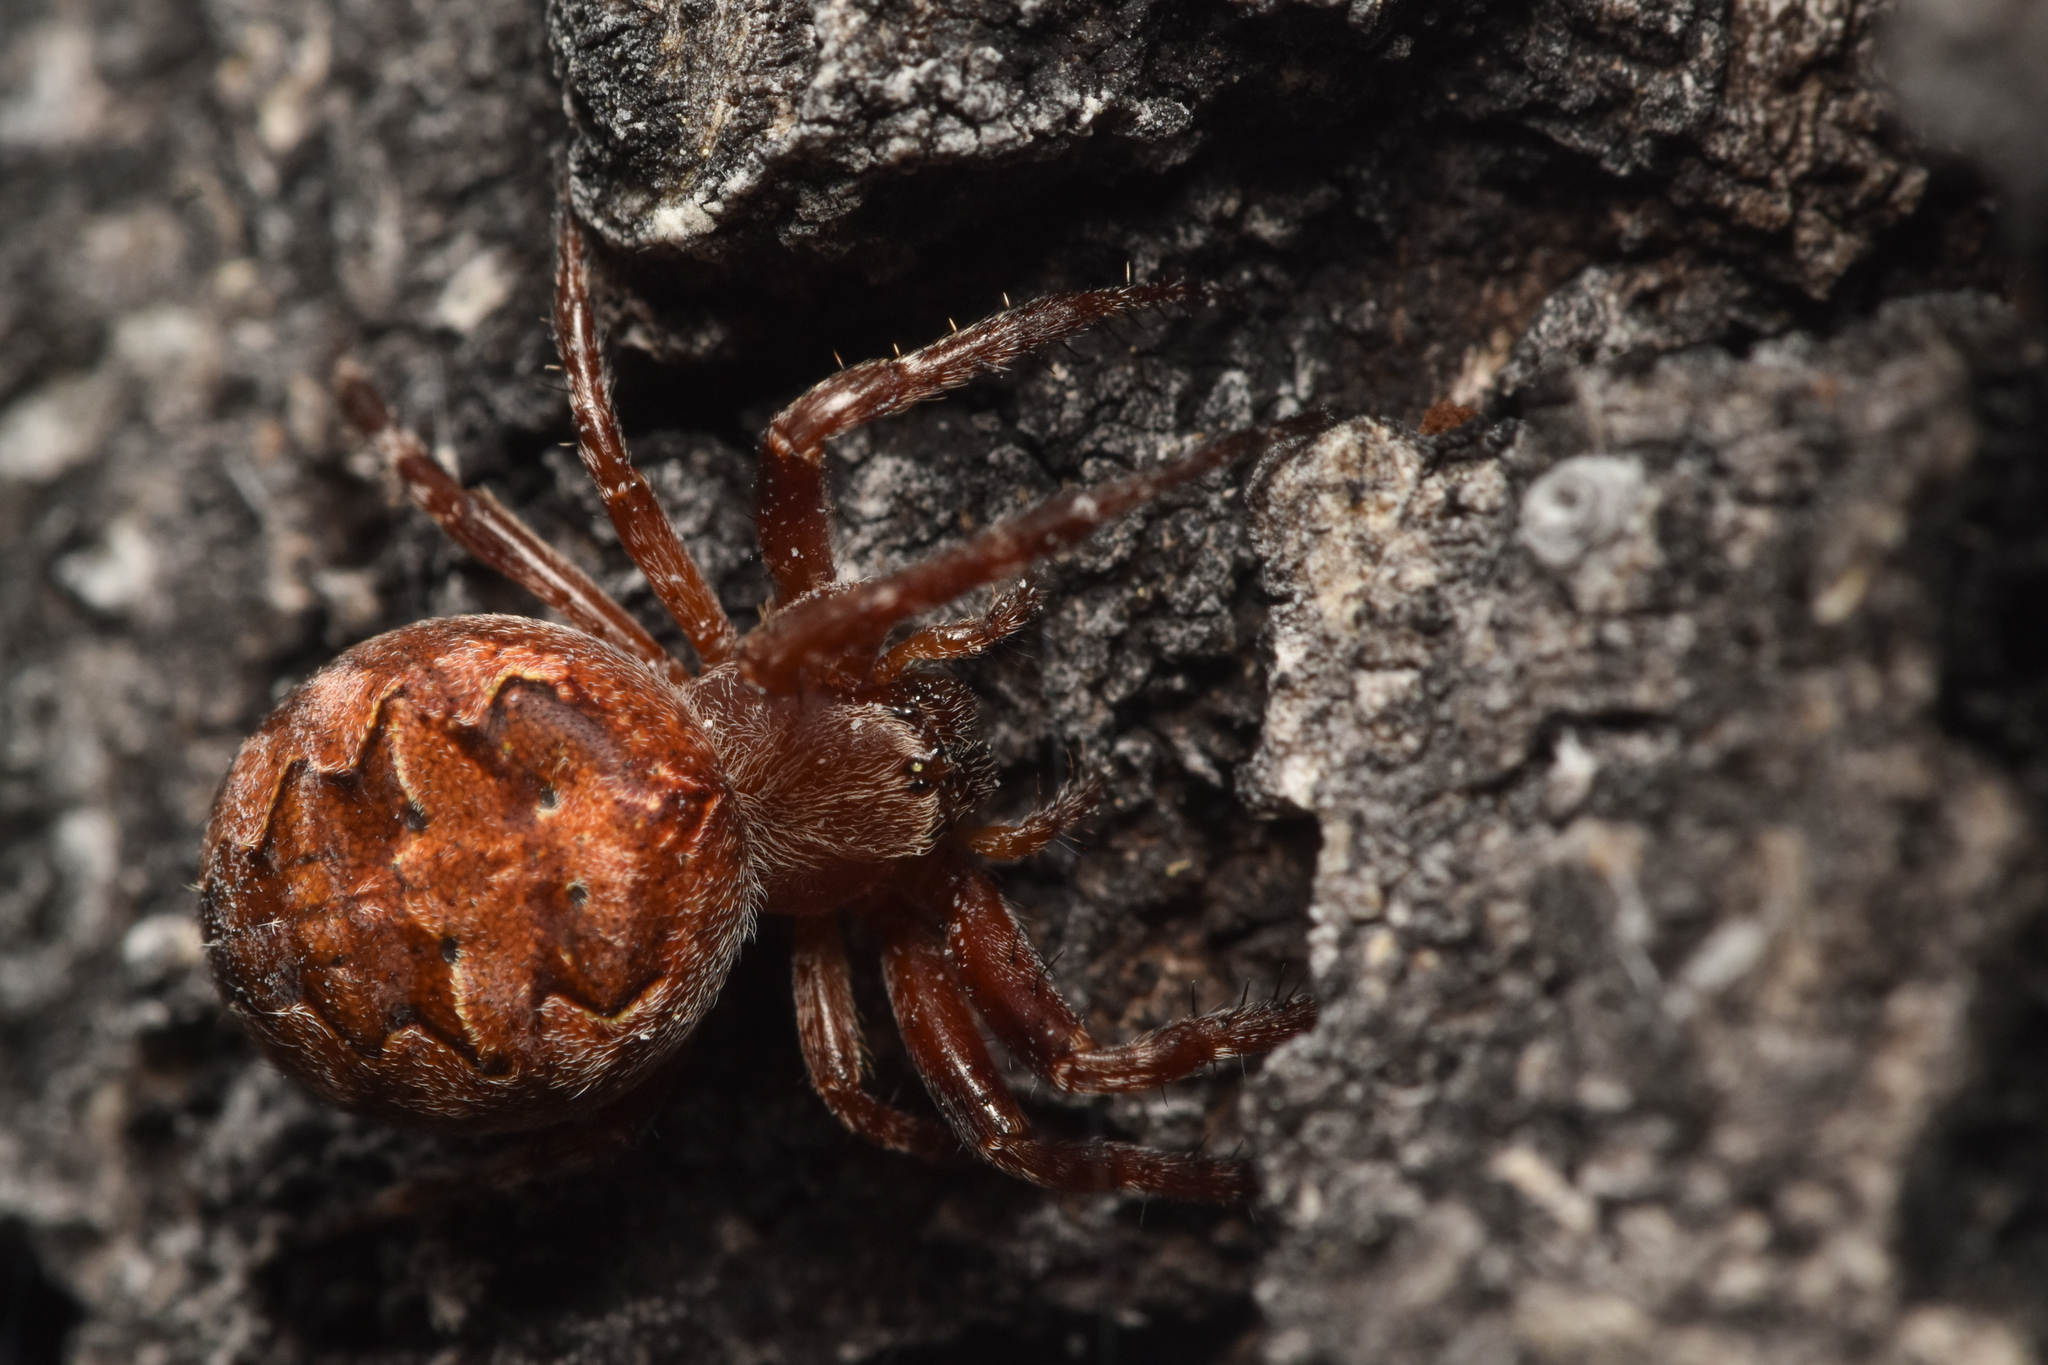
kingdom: Animalia
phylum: Arthropoda
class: Arachnida
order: Araneae
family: Araneidae
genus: Larinioides
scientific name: Larinioides patagiatus
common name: Ornamental orbweaver
